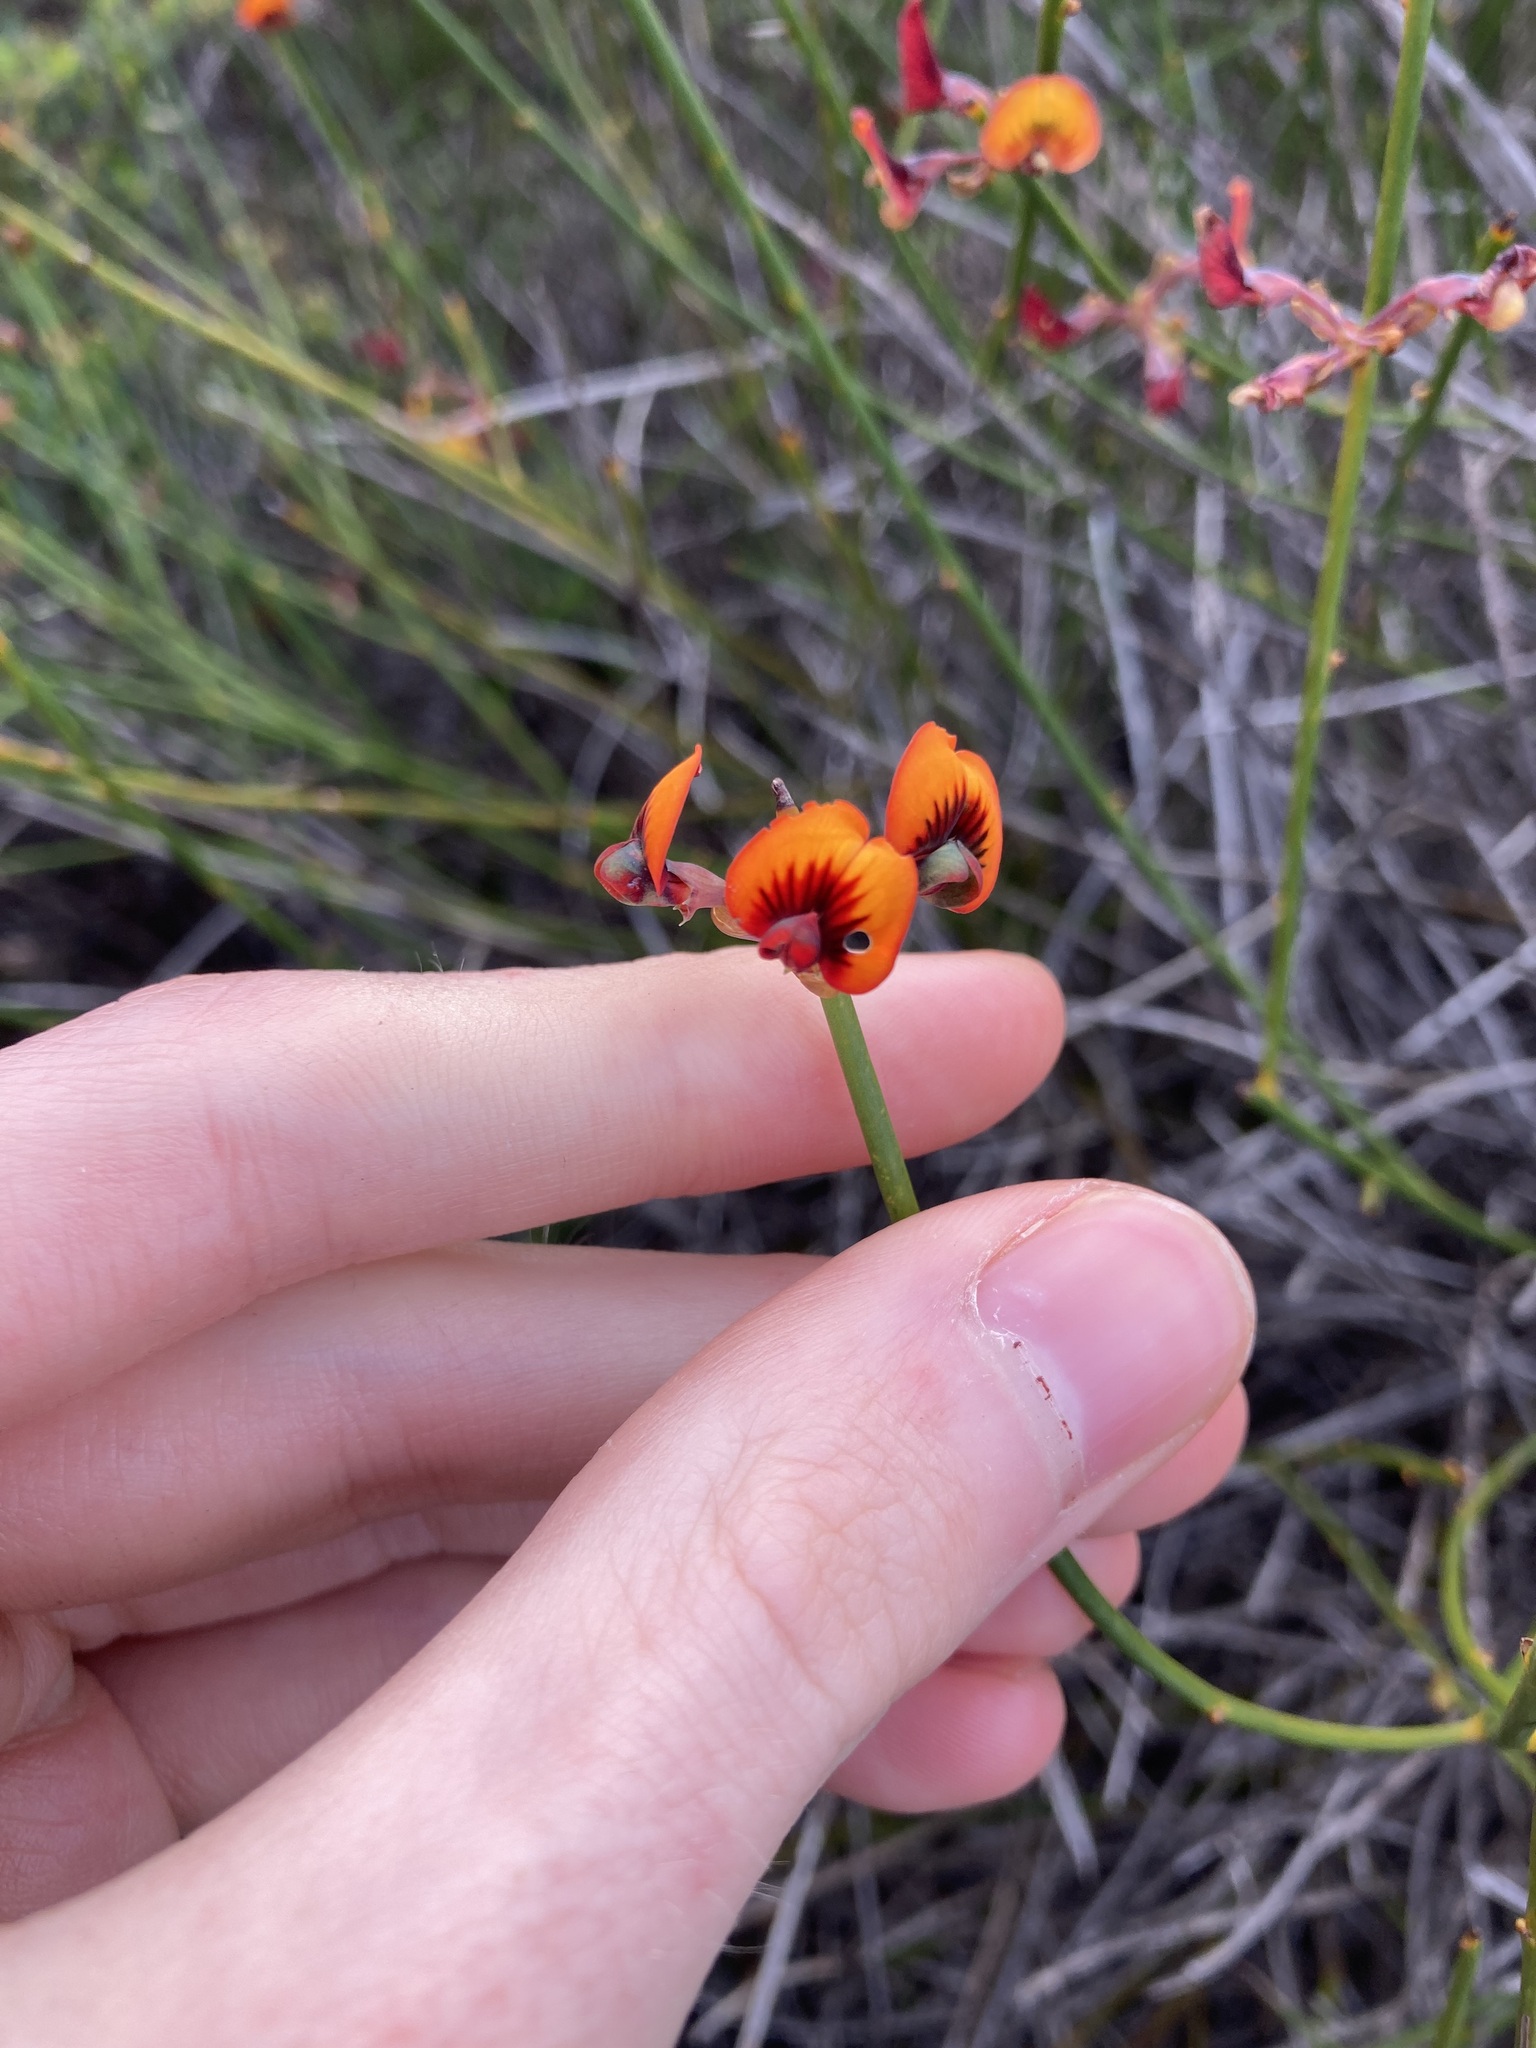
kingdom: Plantae
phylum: Tracheophyta
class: Magnoliopsida
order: Fabales
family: Fabaceae
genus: Daviesia
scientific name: Daviesia triflora
